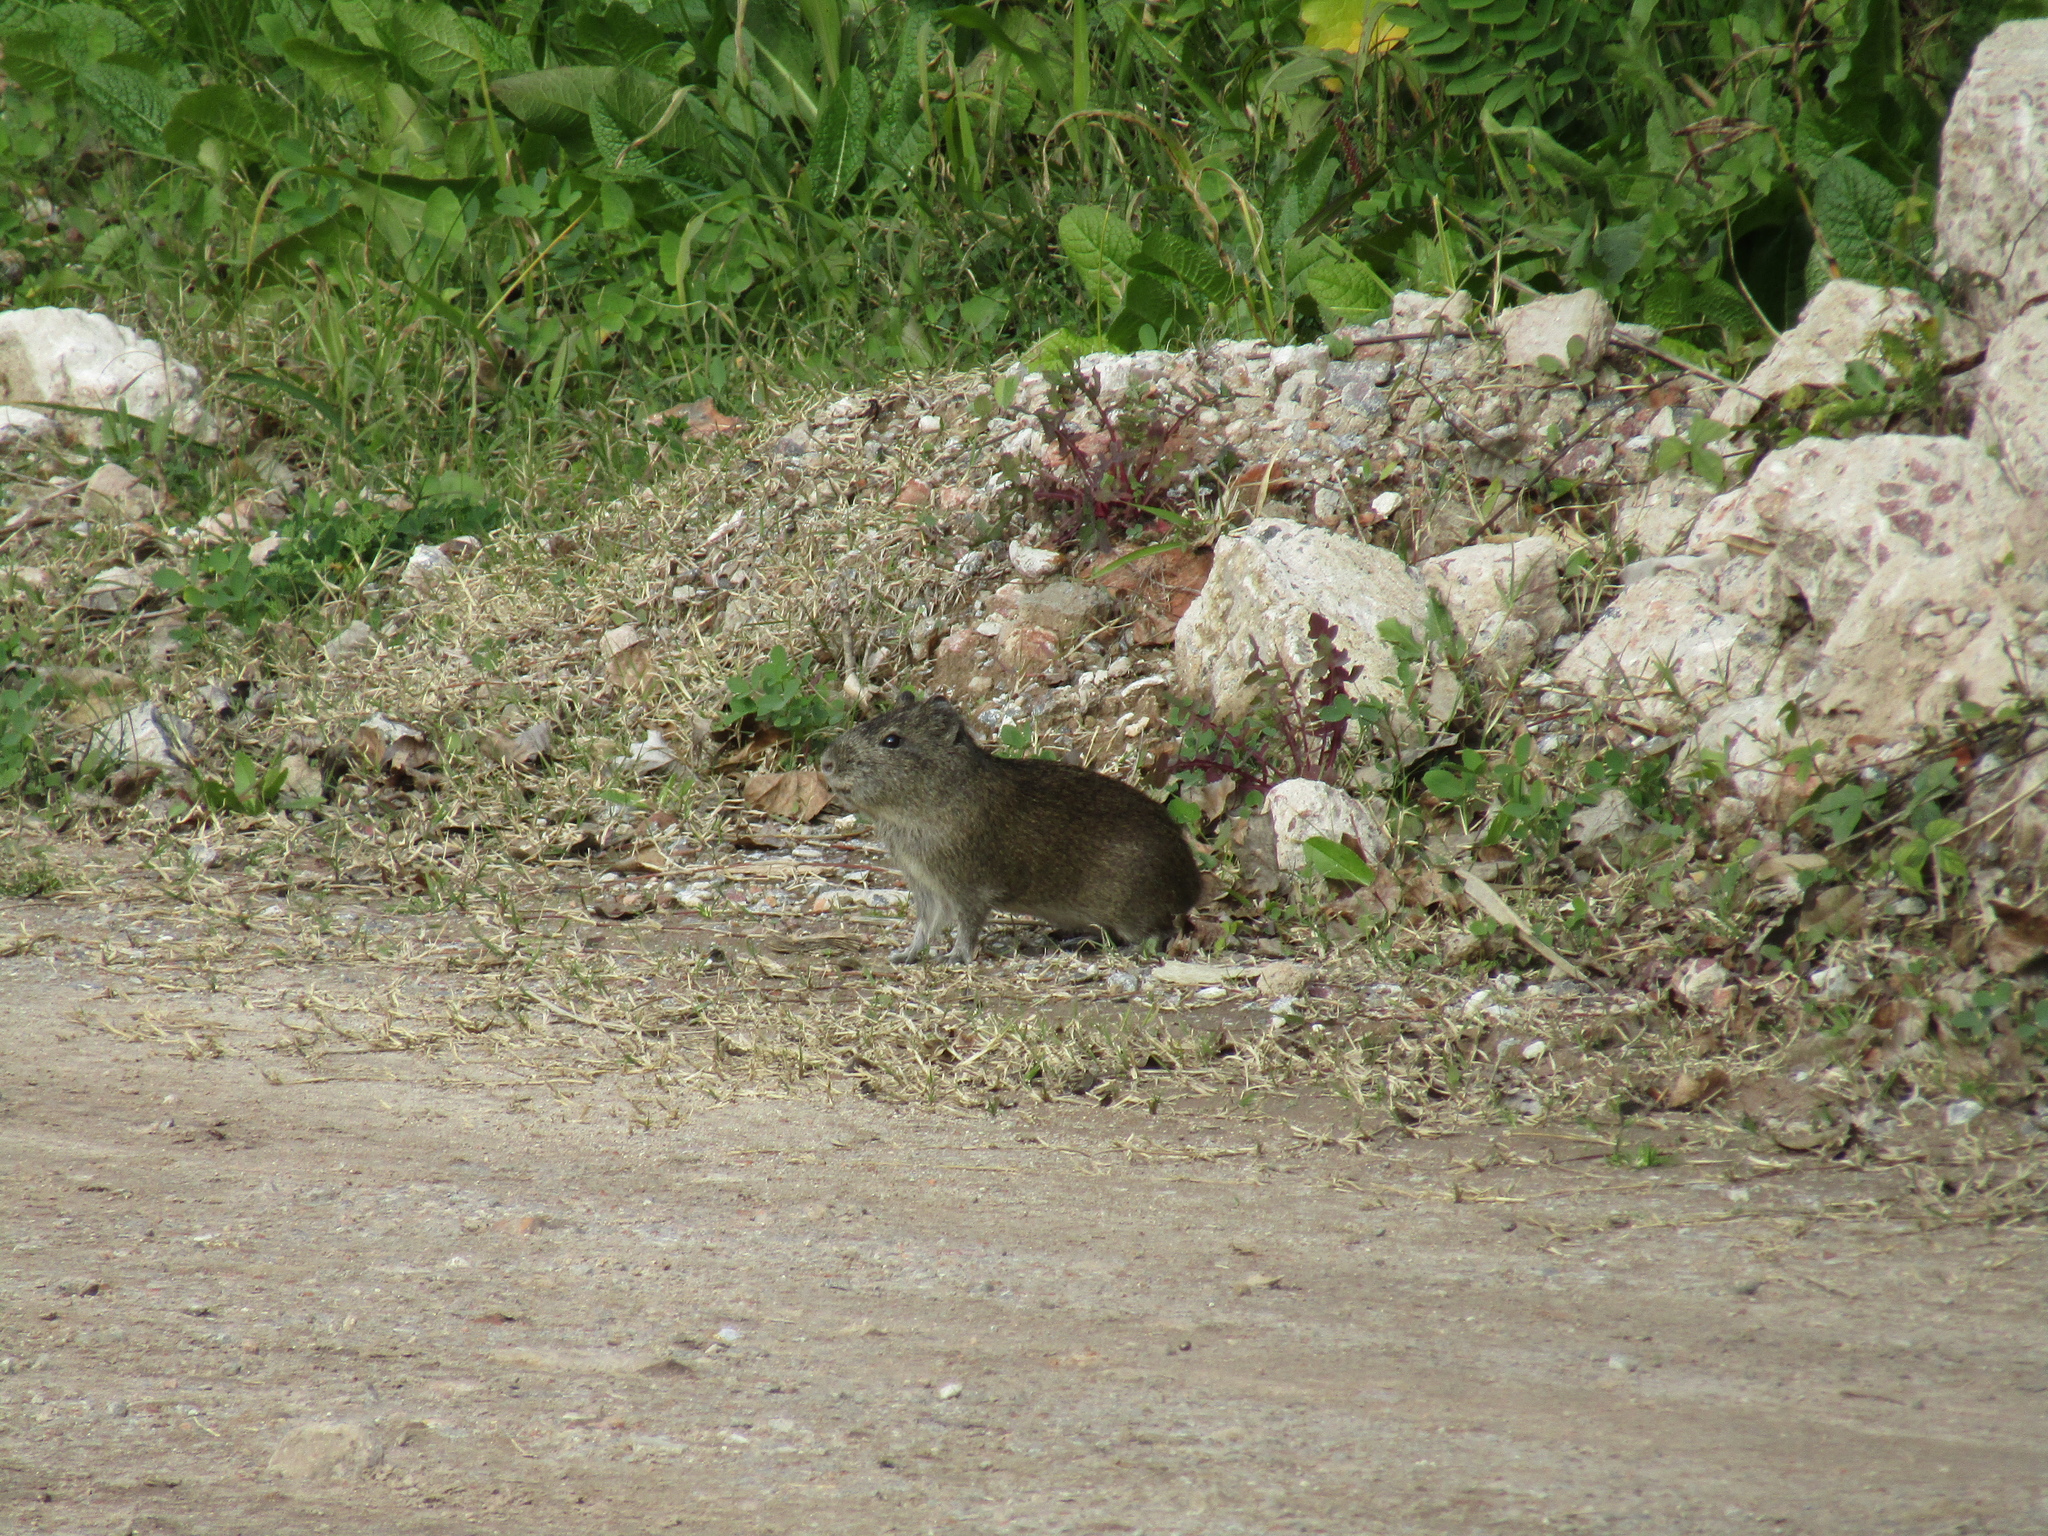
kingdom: Animalia
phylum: Chordata
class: Mammalia
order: Rodentia
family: Caviidae
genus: Cavia
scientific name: Cavia aperea
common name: Brazilian guinea pig
